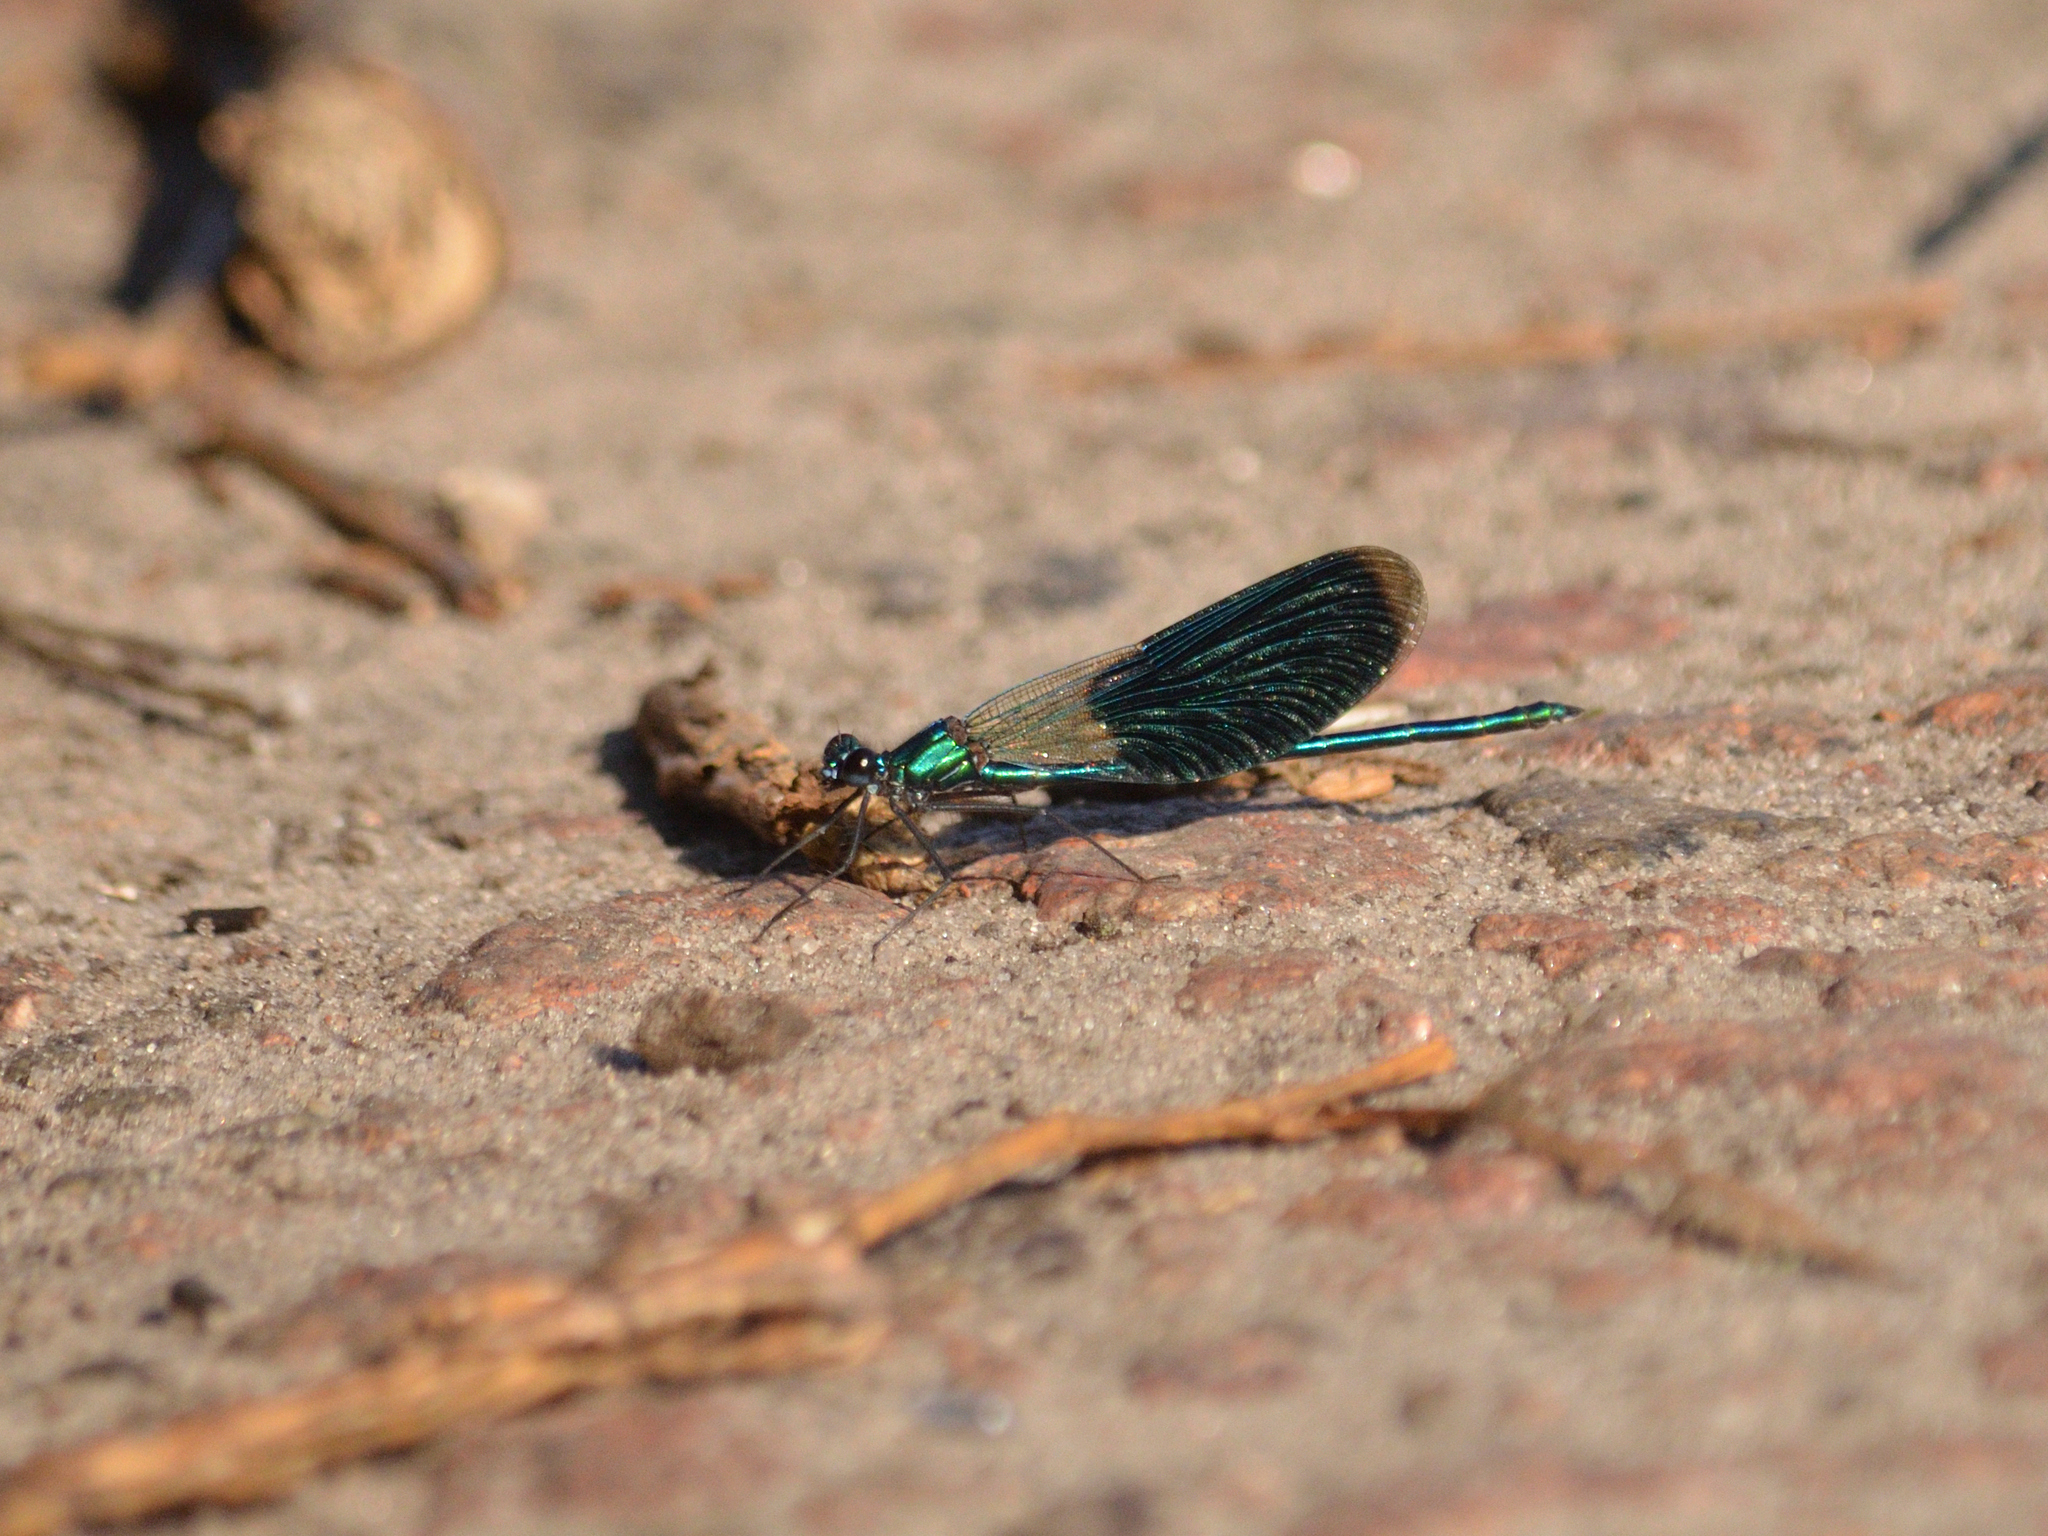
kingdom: Animalia
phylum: Arthropoda
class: Insecta
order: Odonata
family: Calopterygidae
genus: Calopteryx
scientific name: Calopteryx splendens
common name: Banded demoiselle
